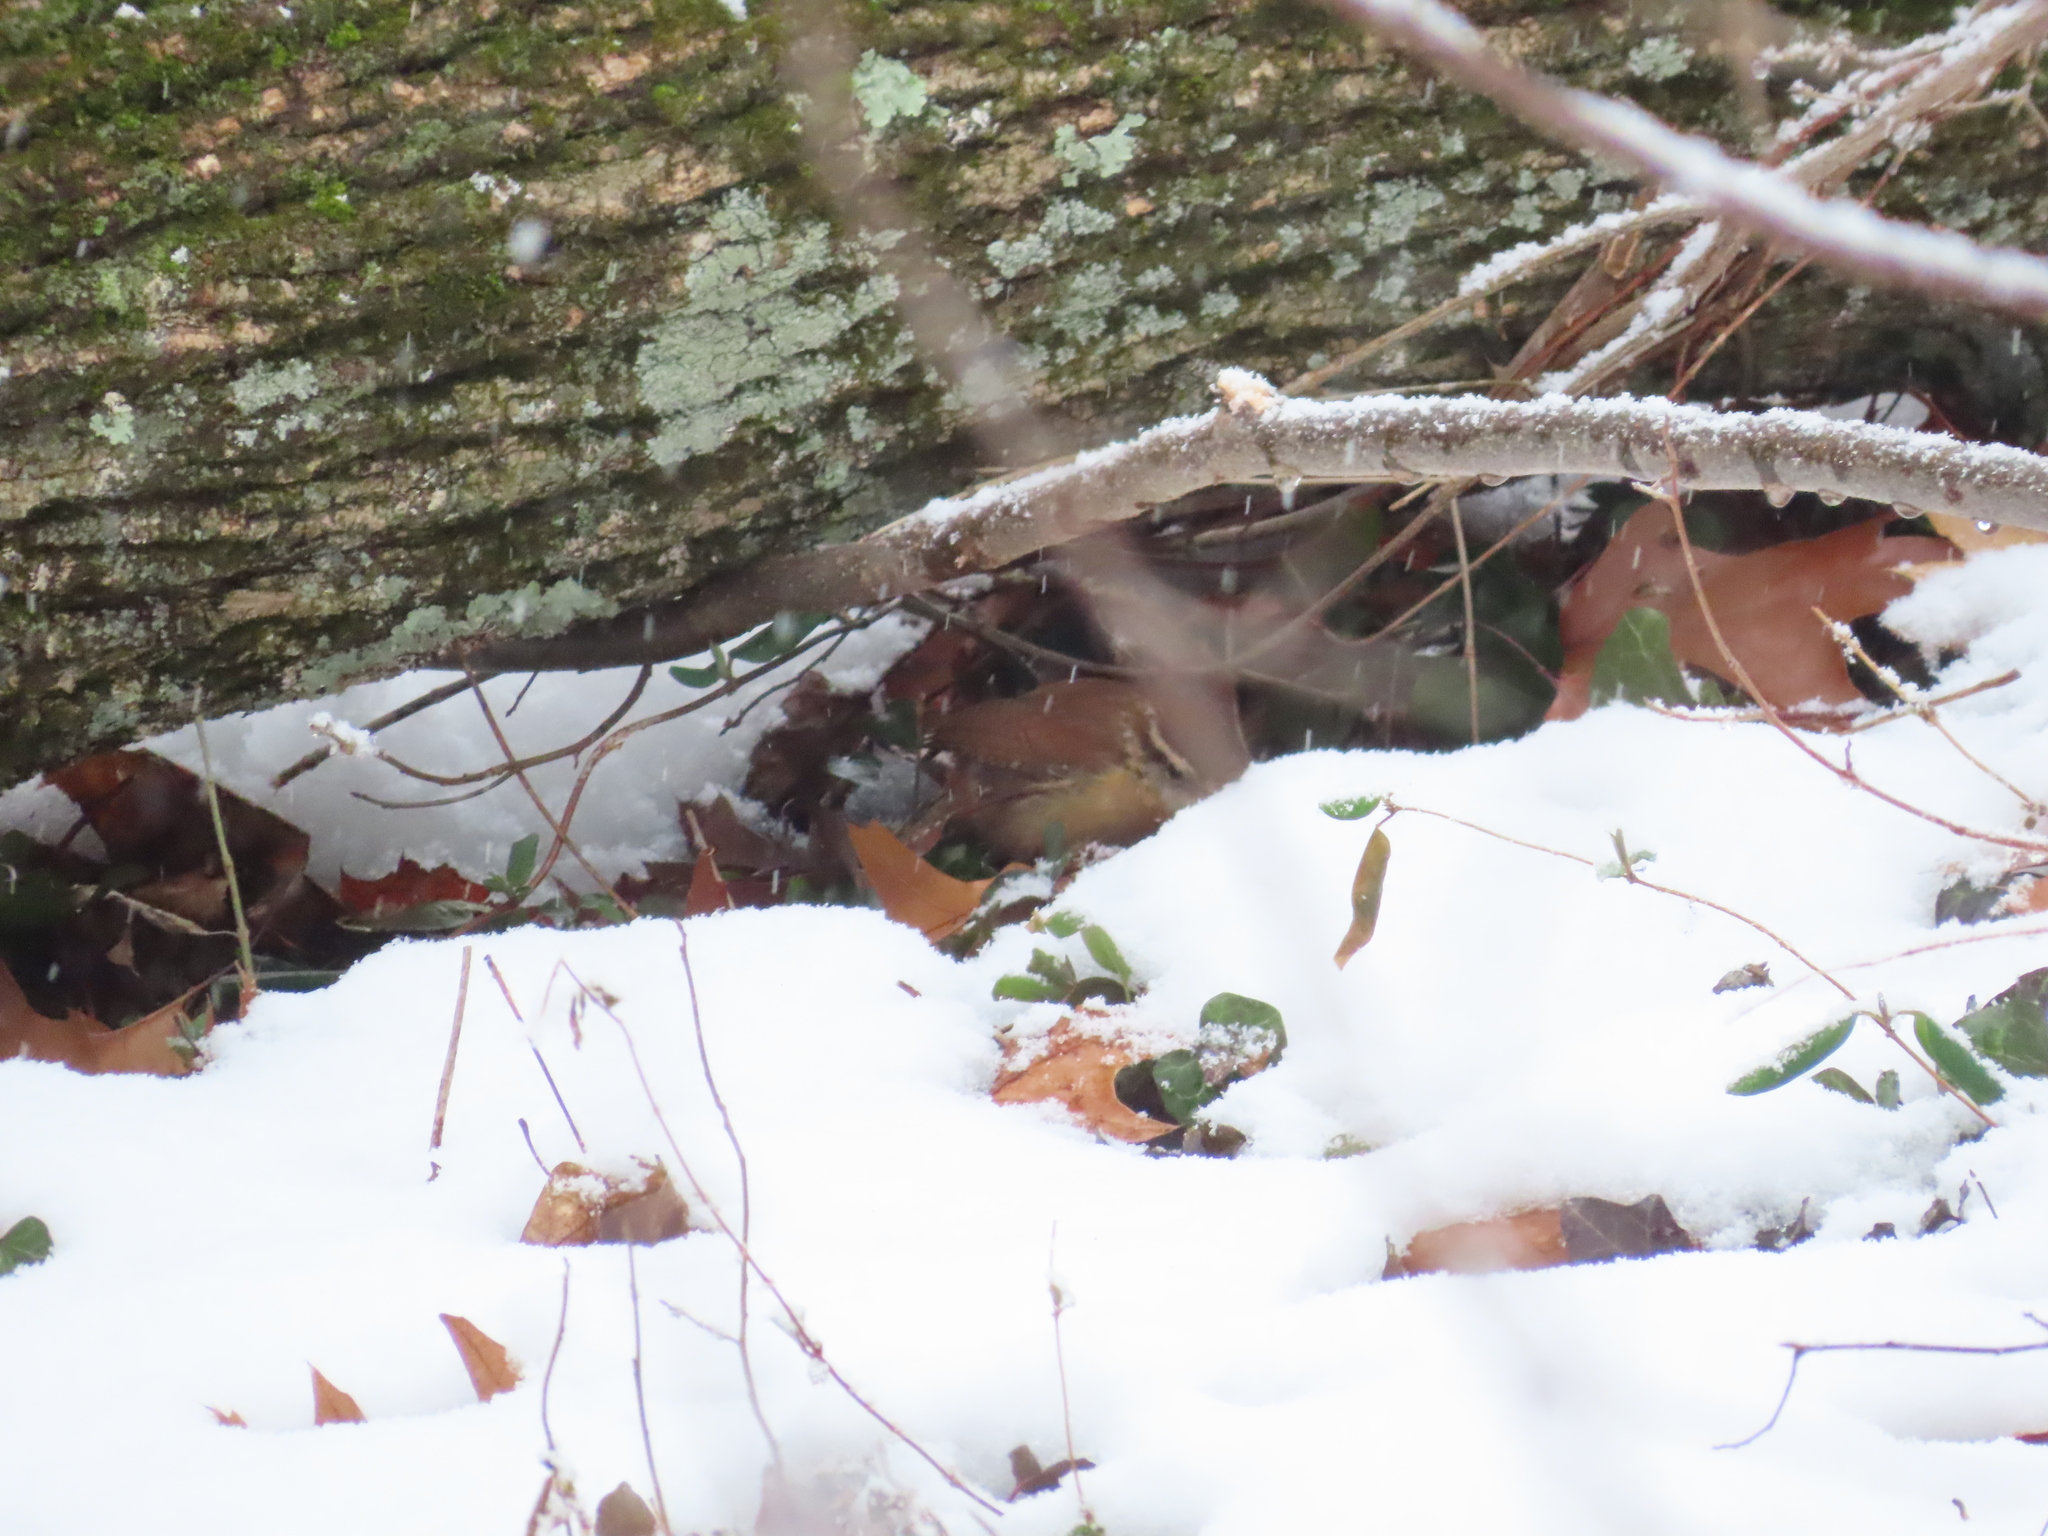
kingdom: Animalia
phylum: Chordata
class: Aves
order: Passeriformes
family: Troglodytidae
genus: Thryothorus
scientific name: Thryothorus ludovicianus
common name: Carolina wren
